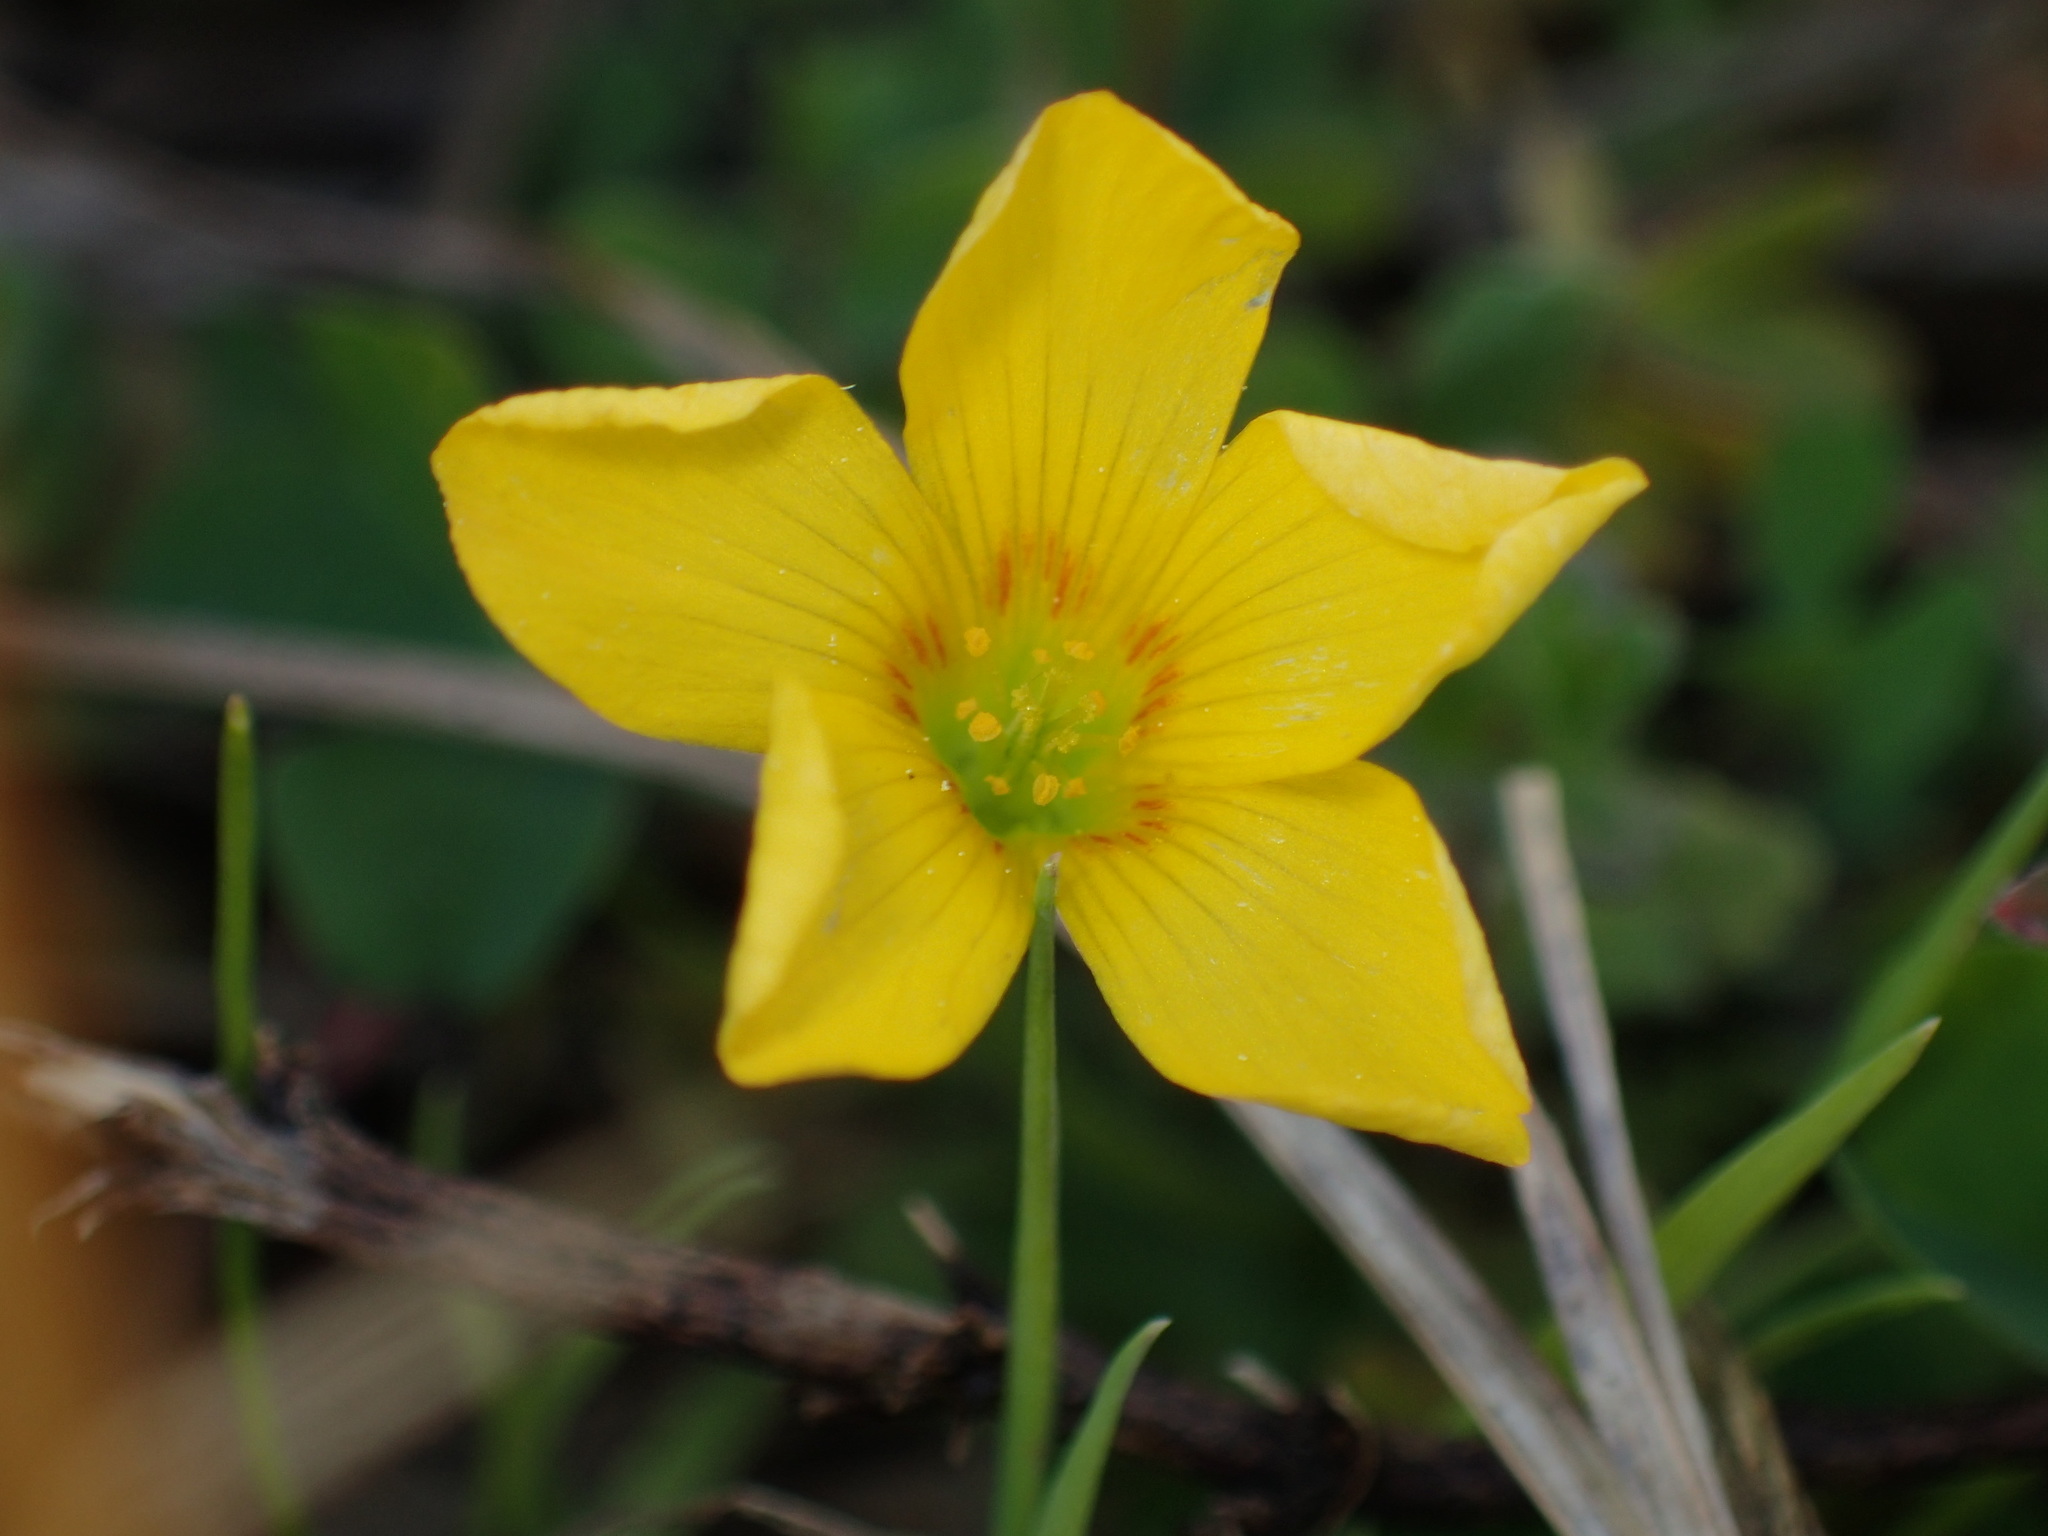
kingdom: Plantae
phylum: Tracheophyta
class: Magnoliopsida
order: Oxalidales
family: Oxalidaceae
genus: Oxalis
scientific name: Oxalis
